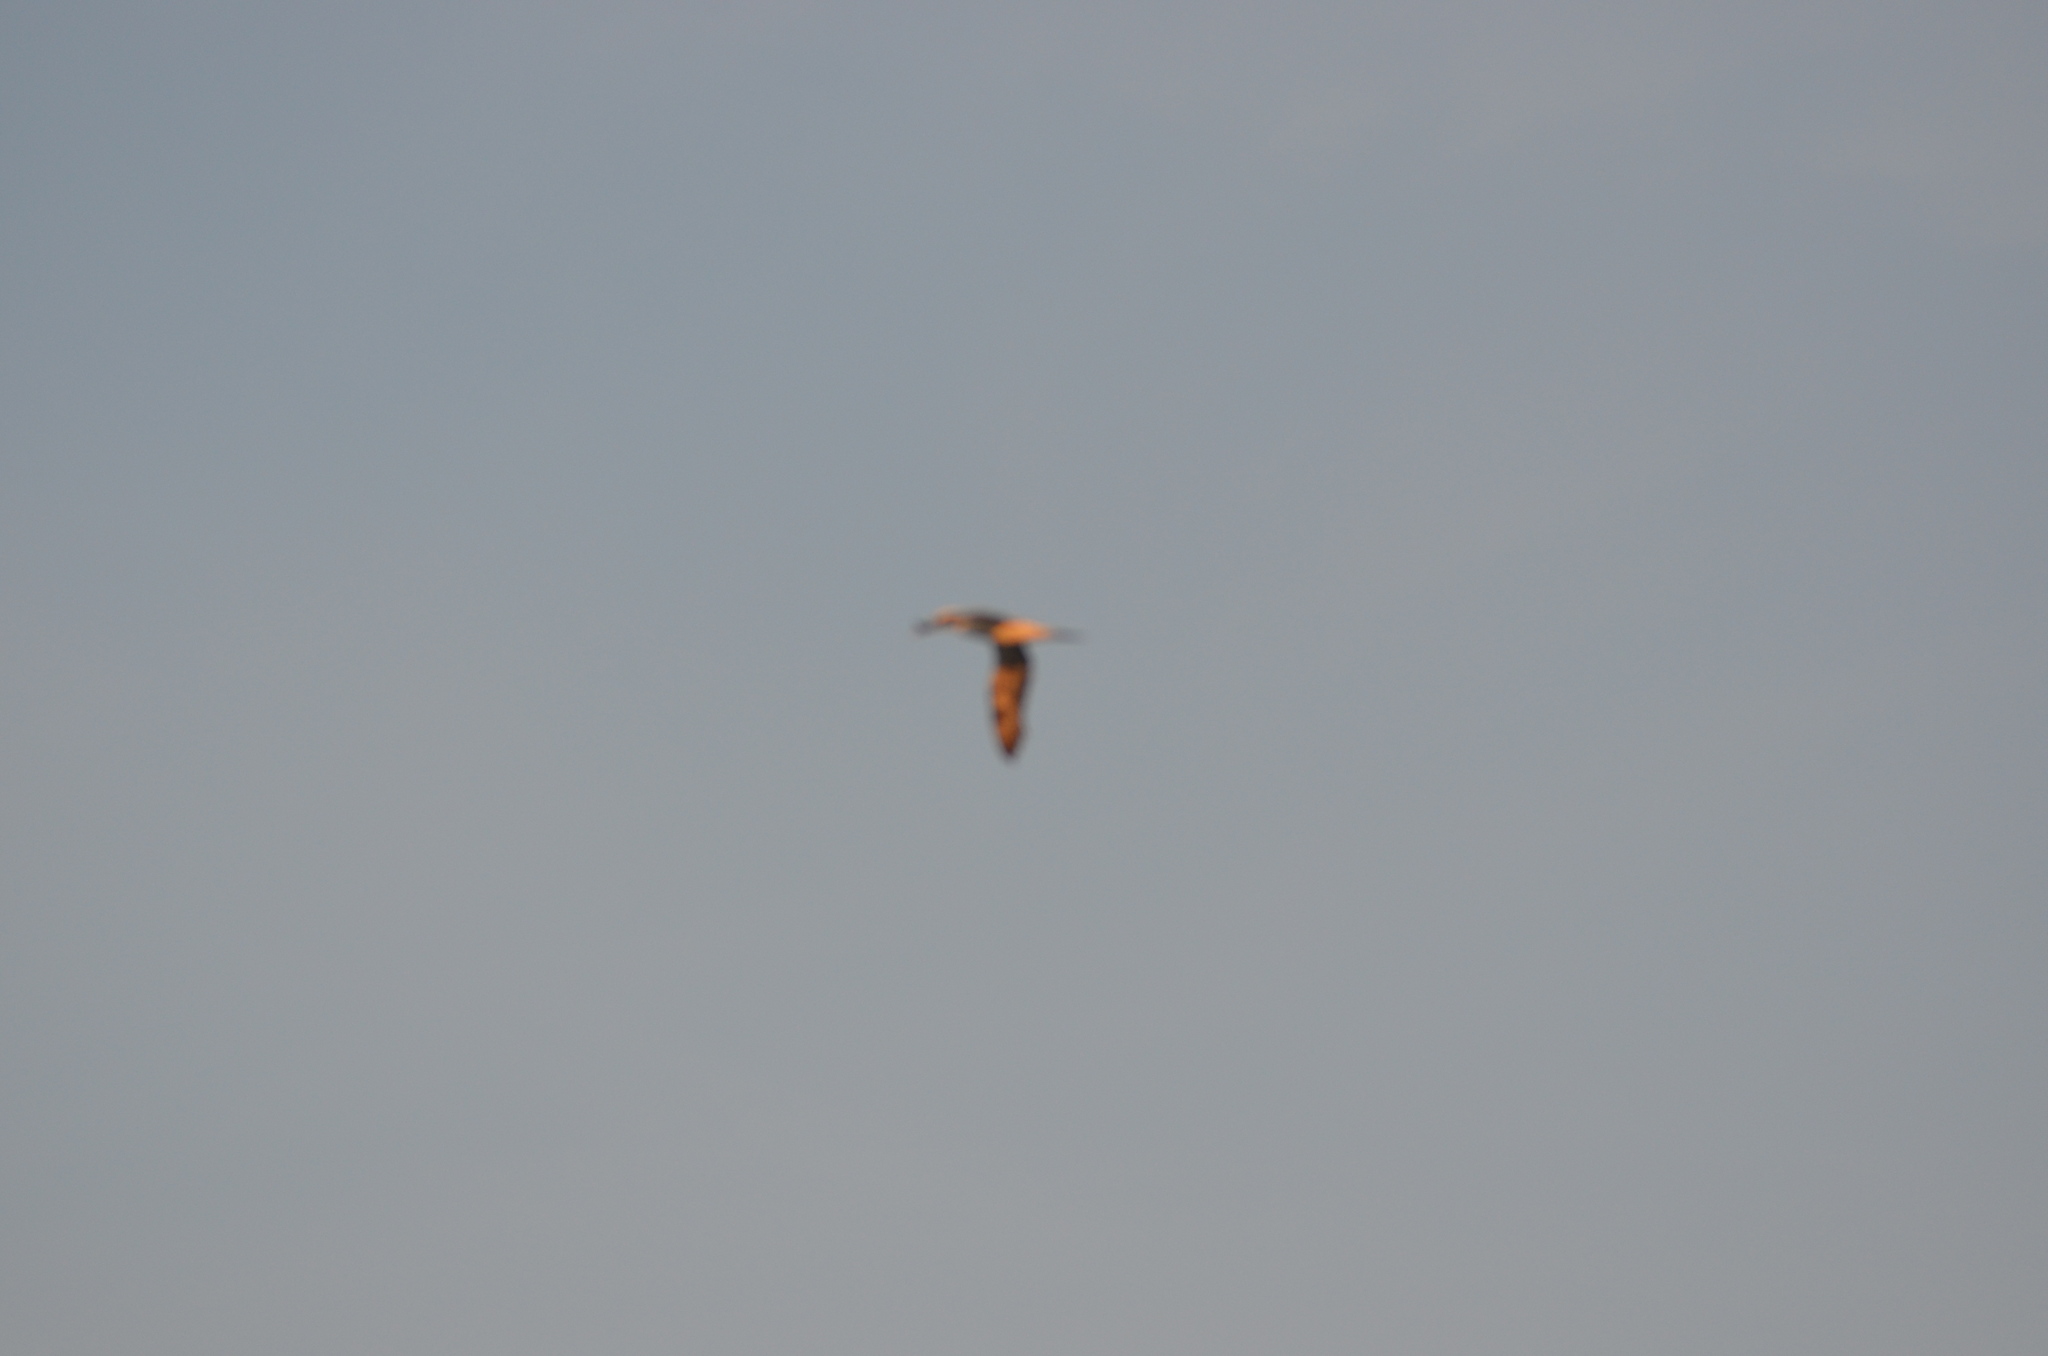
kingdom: Animalia
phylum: Chordata
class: Aves
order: Suliformes
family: Sulidae
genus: Morus
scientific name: Morus bassanus
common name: Northern gannet
